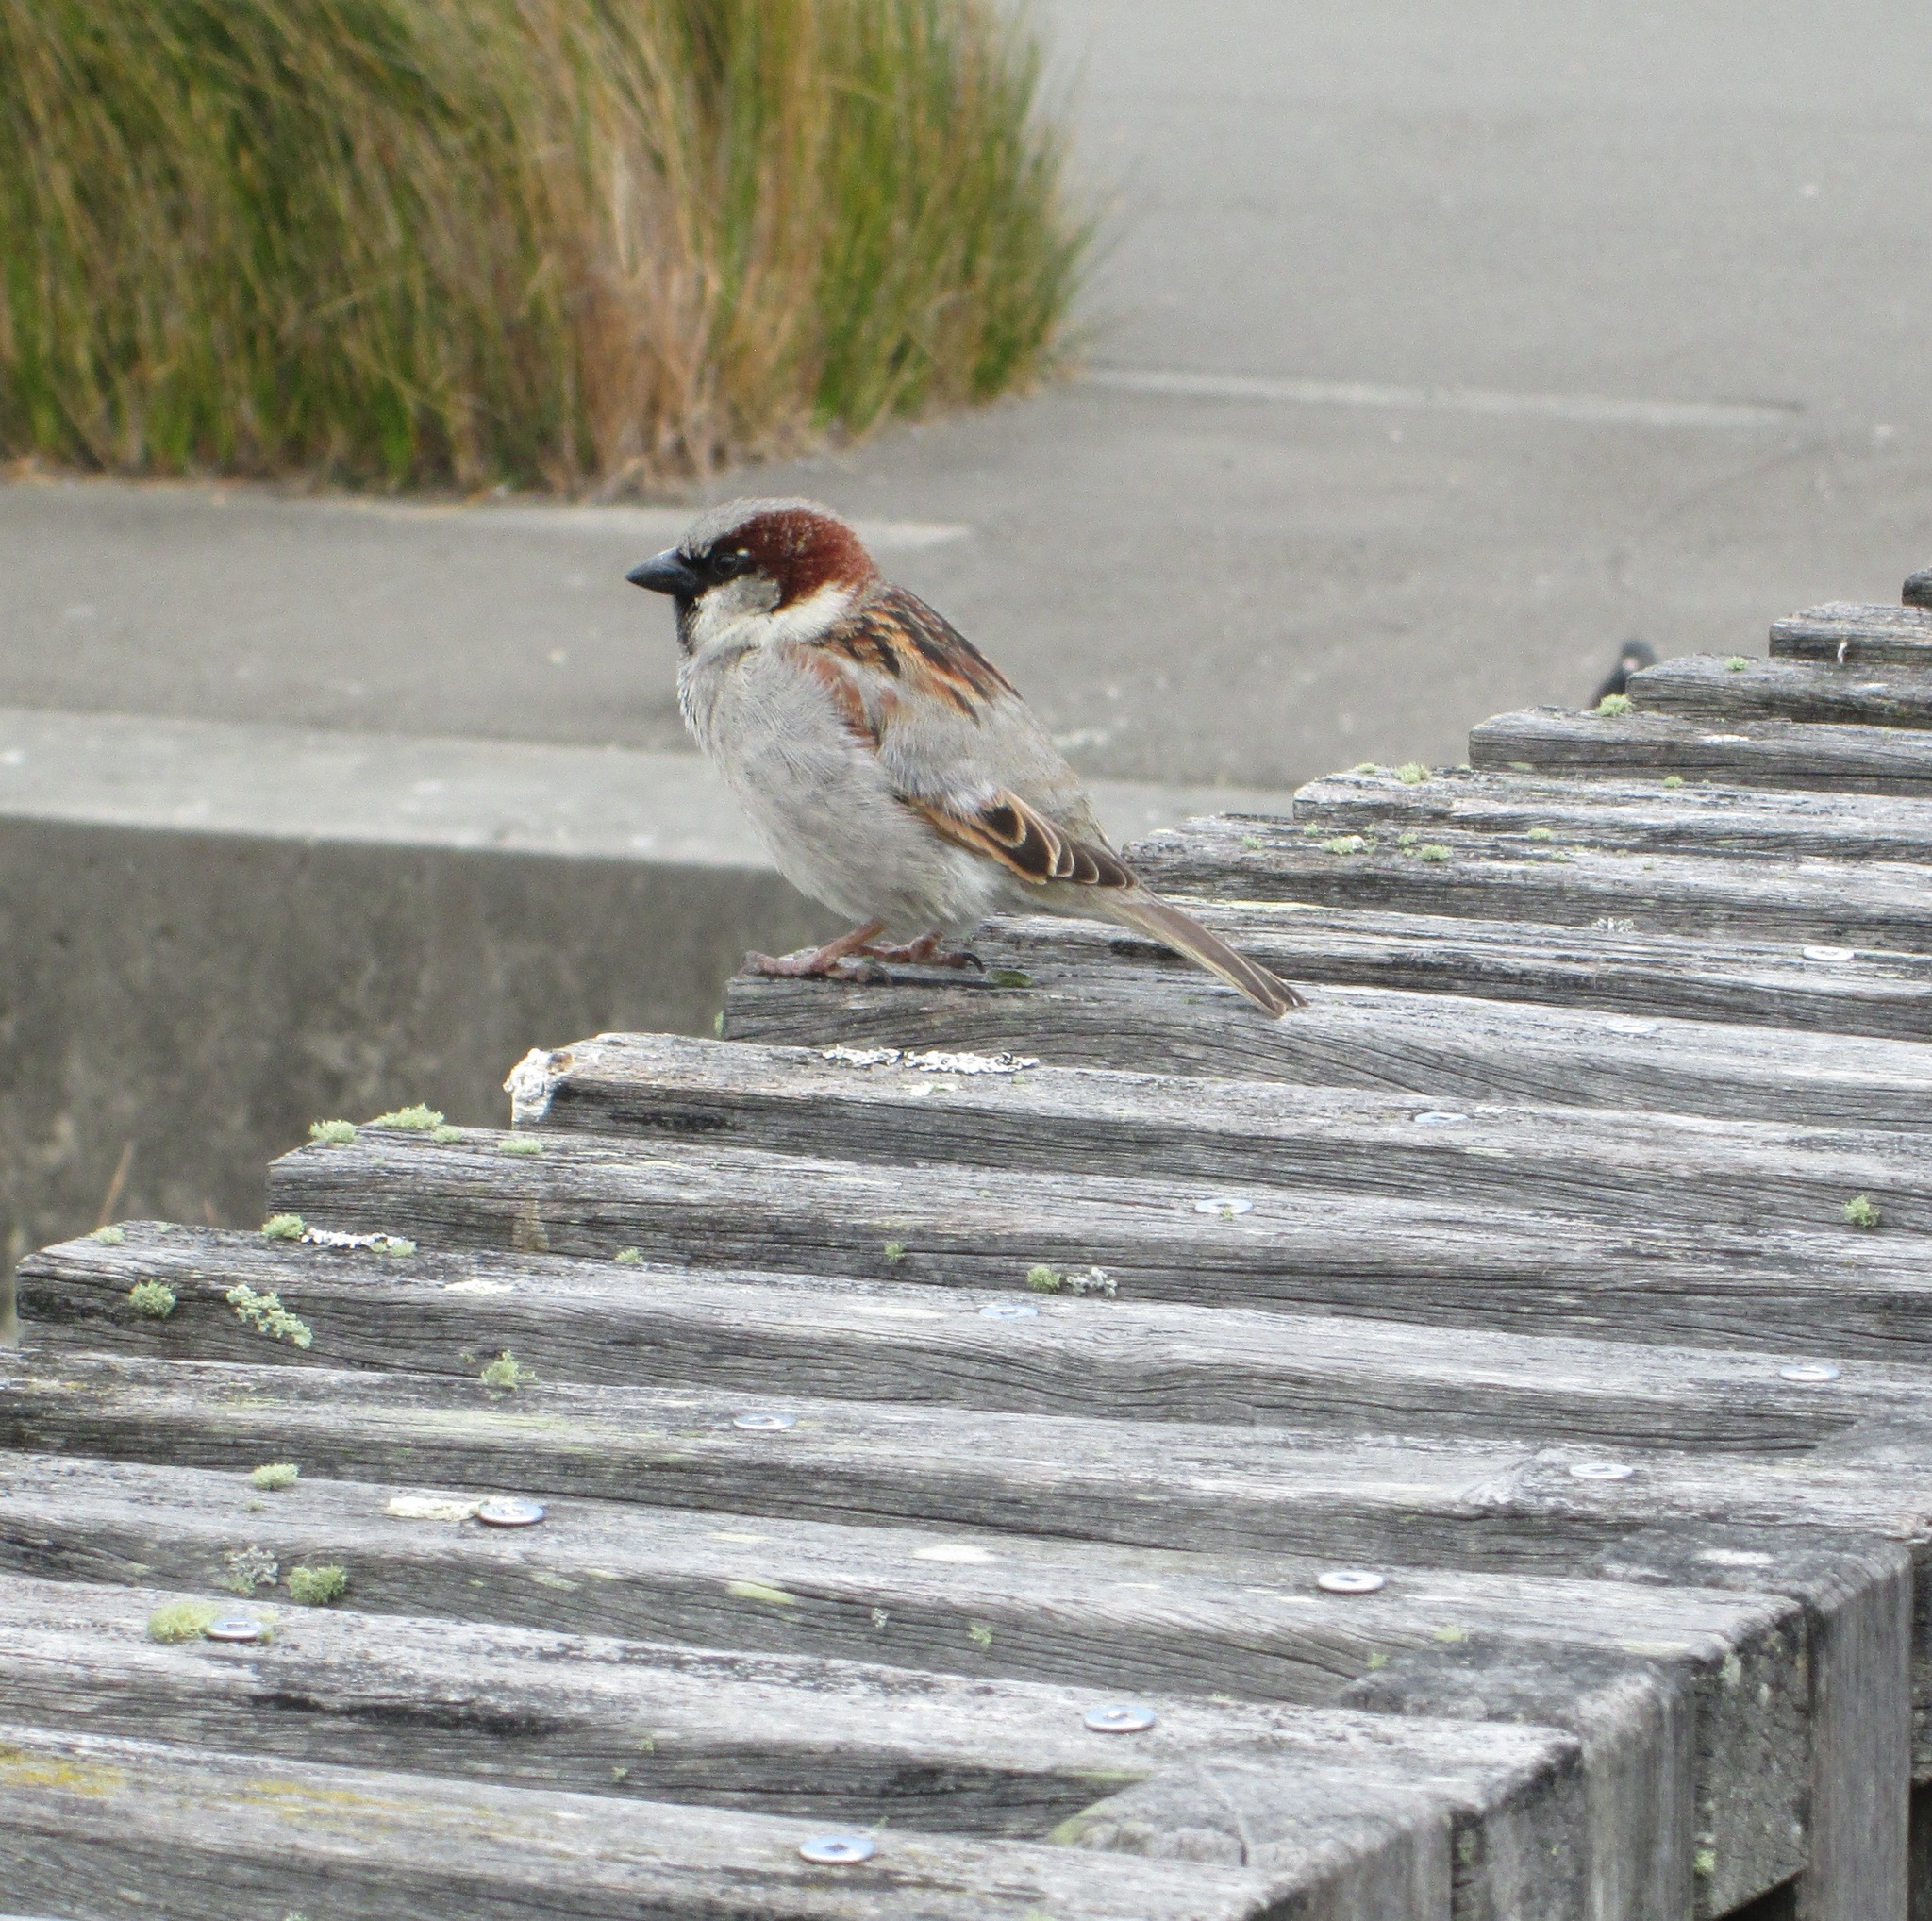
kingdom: Animalia
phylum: Chordata
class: Aves
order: Passeriformes
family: Passeridae
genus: Passer
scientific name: Passer domesticus
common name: House sparrow
